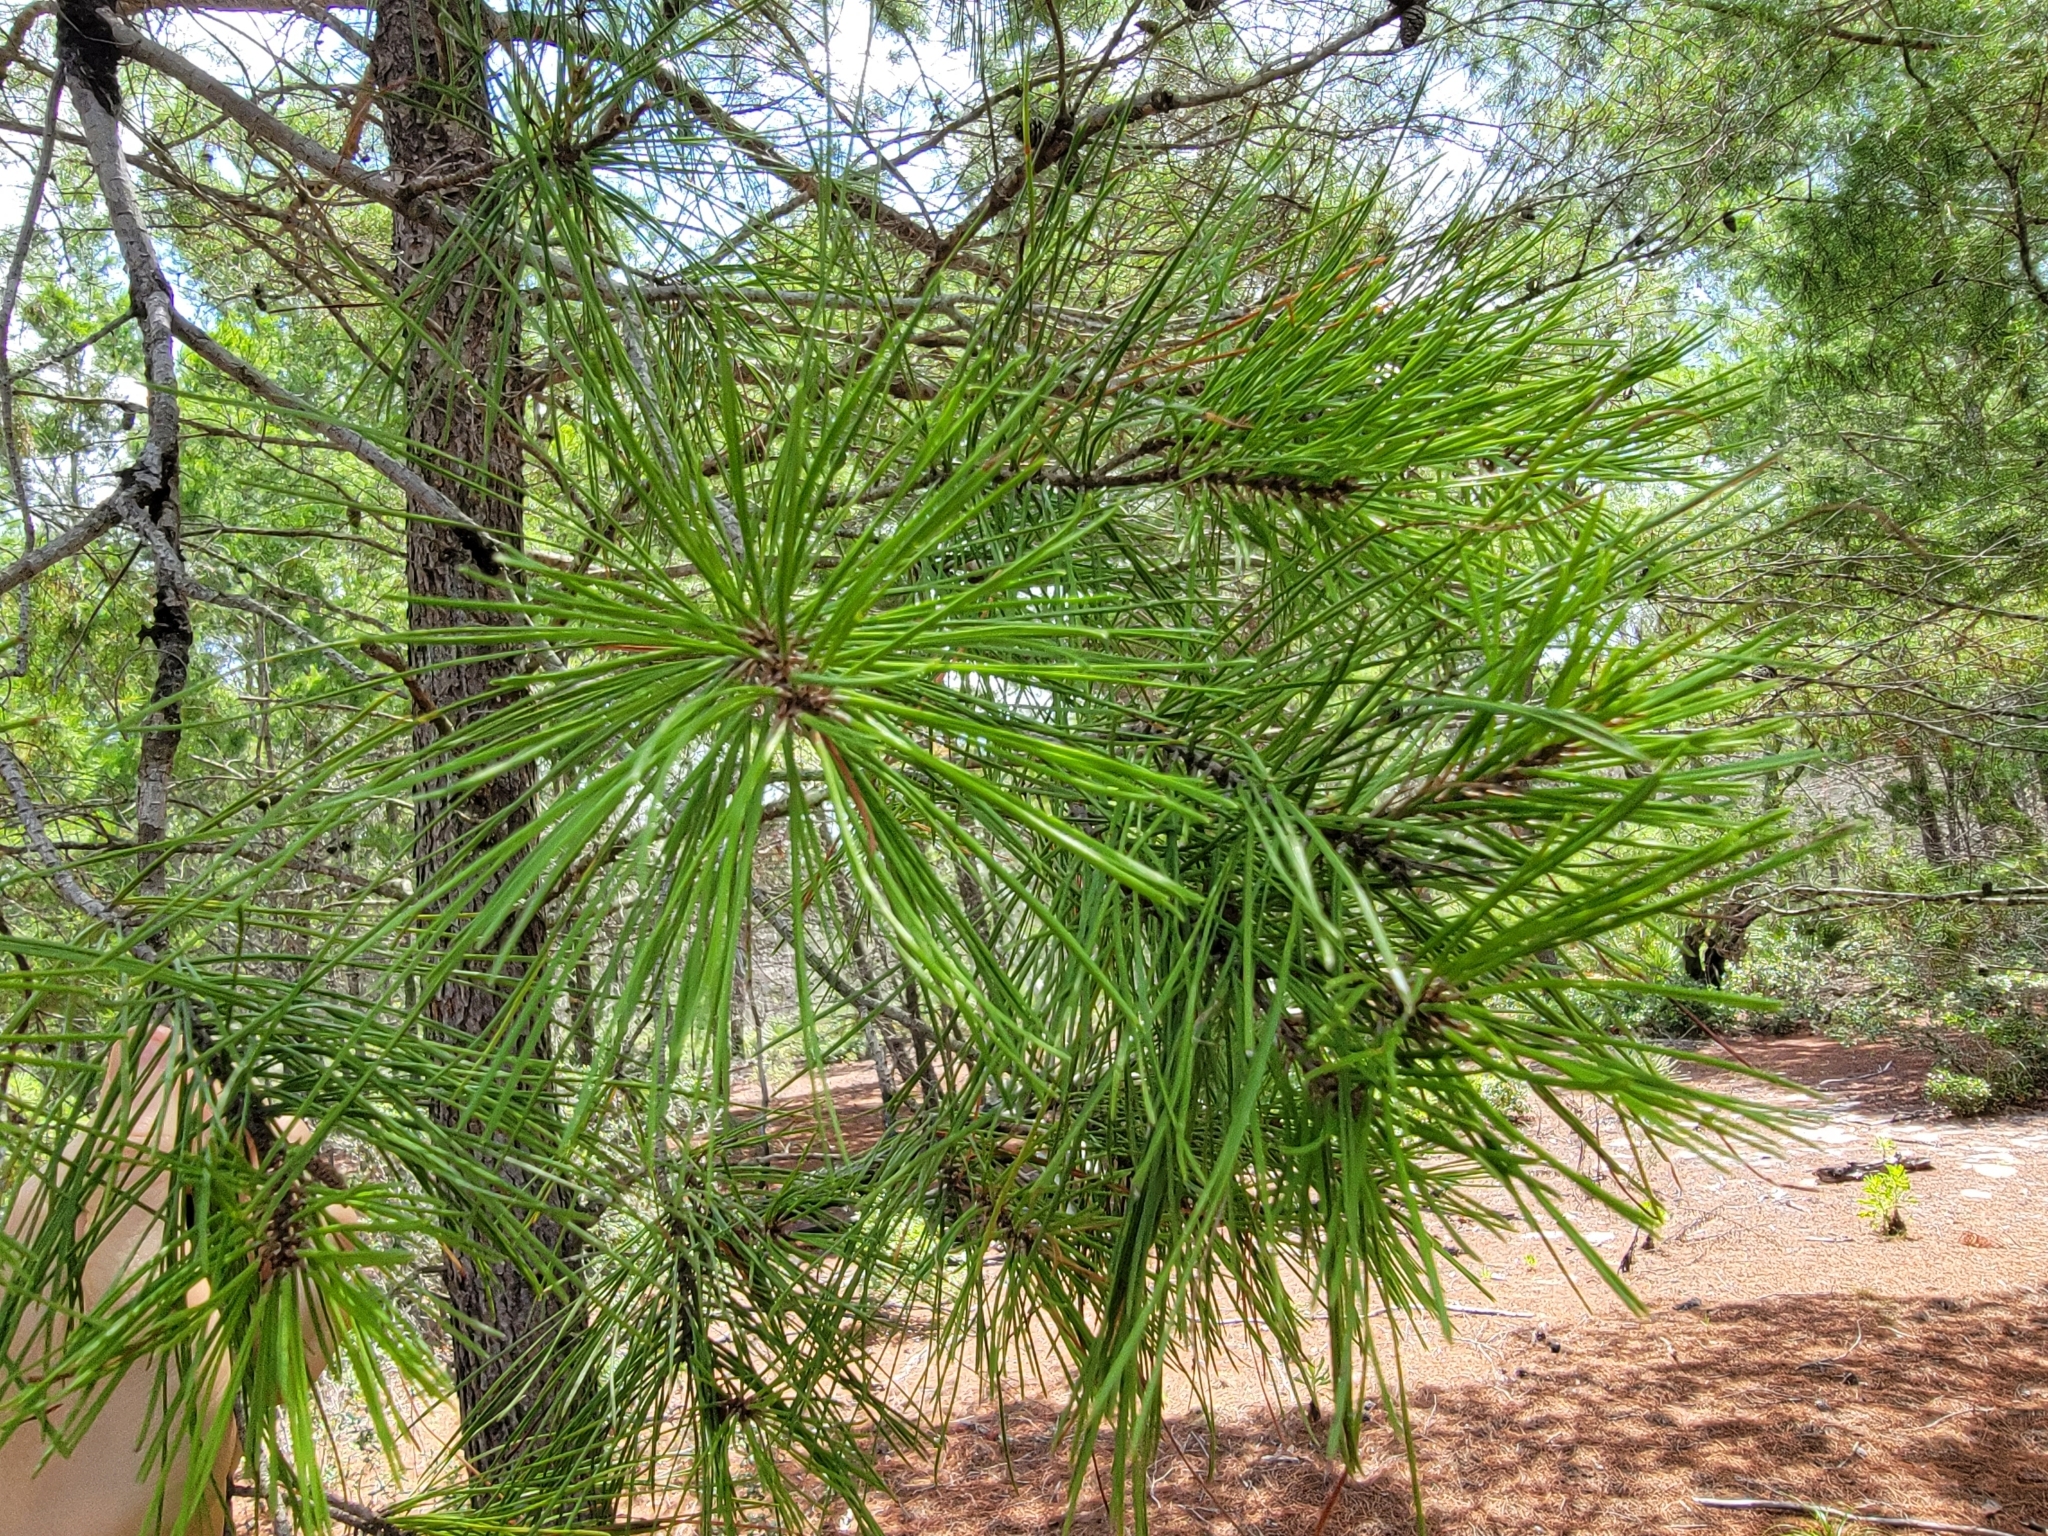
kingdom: Plantae
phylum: Tracheophyta
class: Pinopsida
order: Pinales
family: Pinaceae
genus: Pinus
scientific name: Pinus clausa
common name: Sand pine
